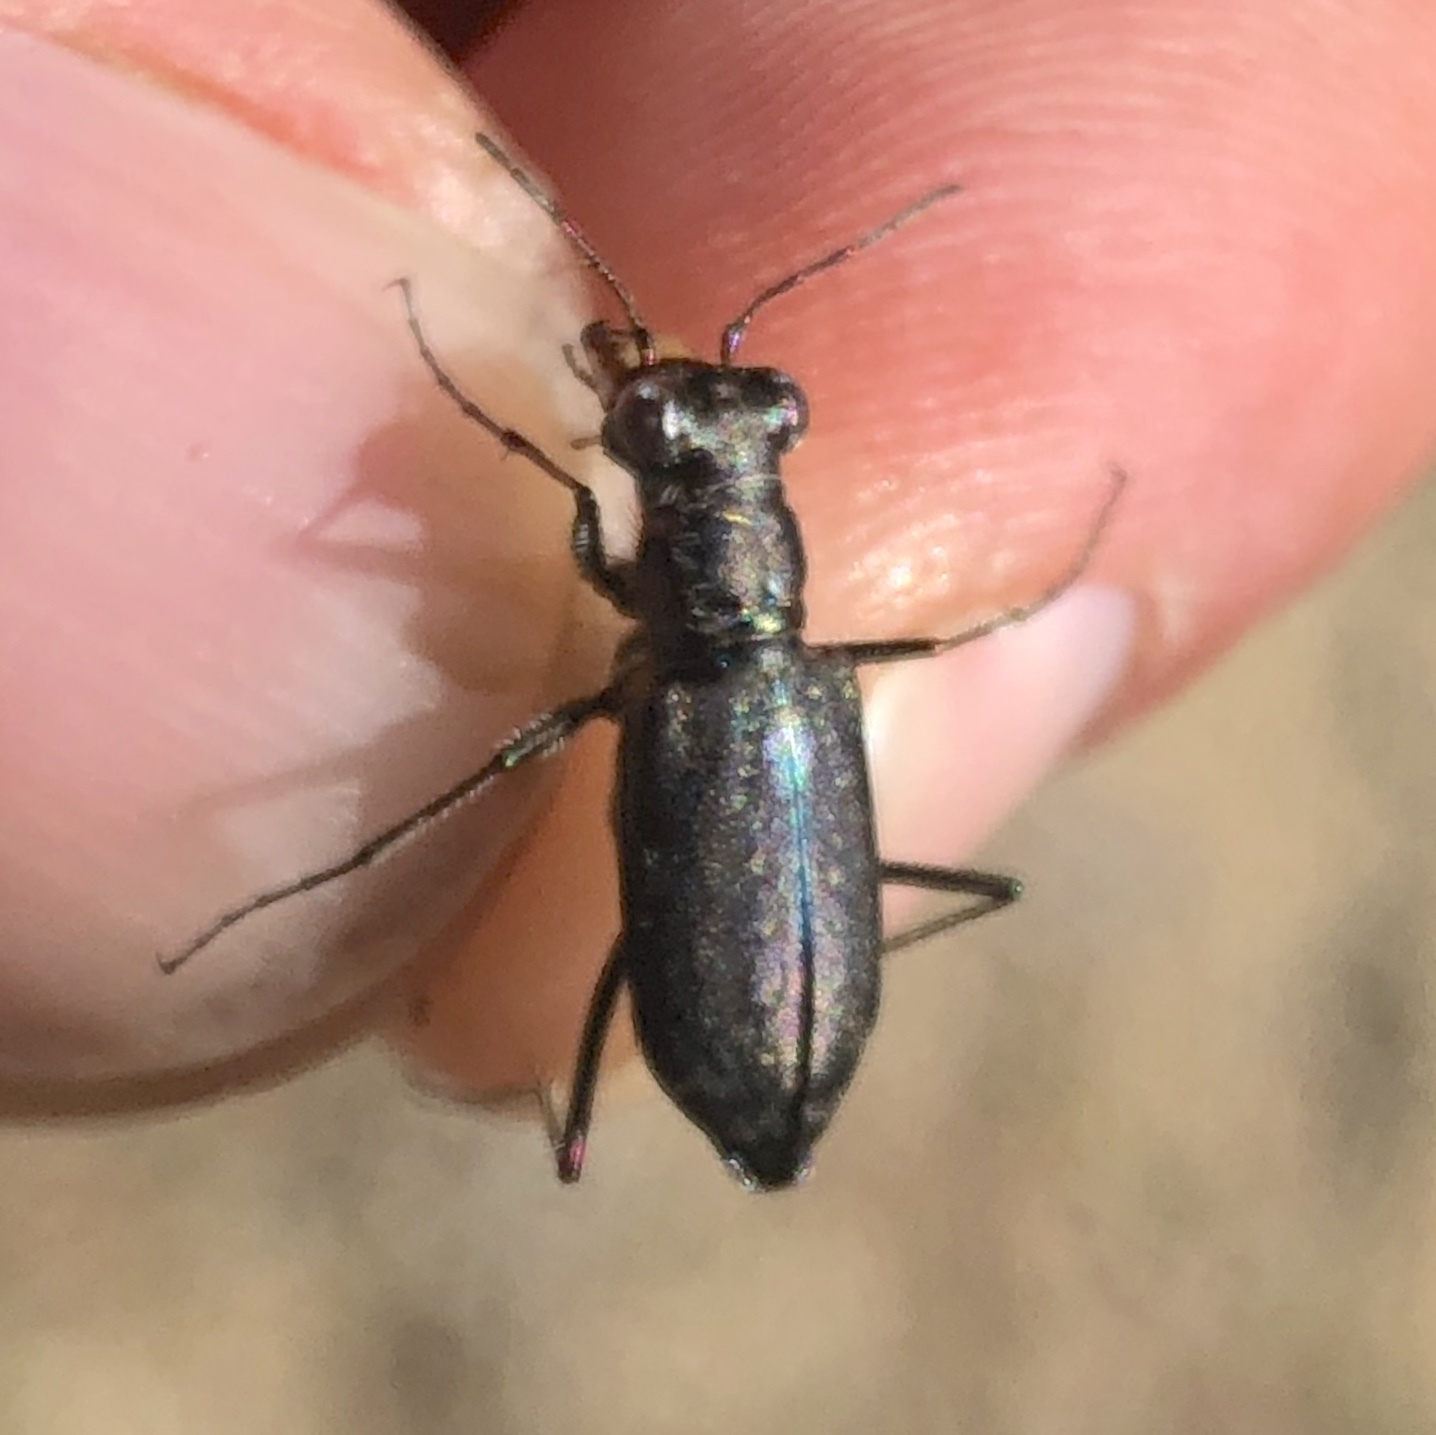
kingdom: Animalia
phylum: Arthropoda
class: Insecta
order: Coleoptera
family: Carabidae
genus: Cicindela
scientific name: Cicindela punctulata
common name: Punctured tiger beetle
